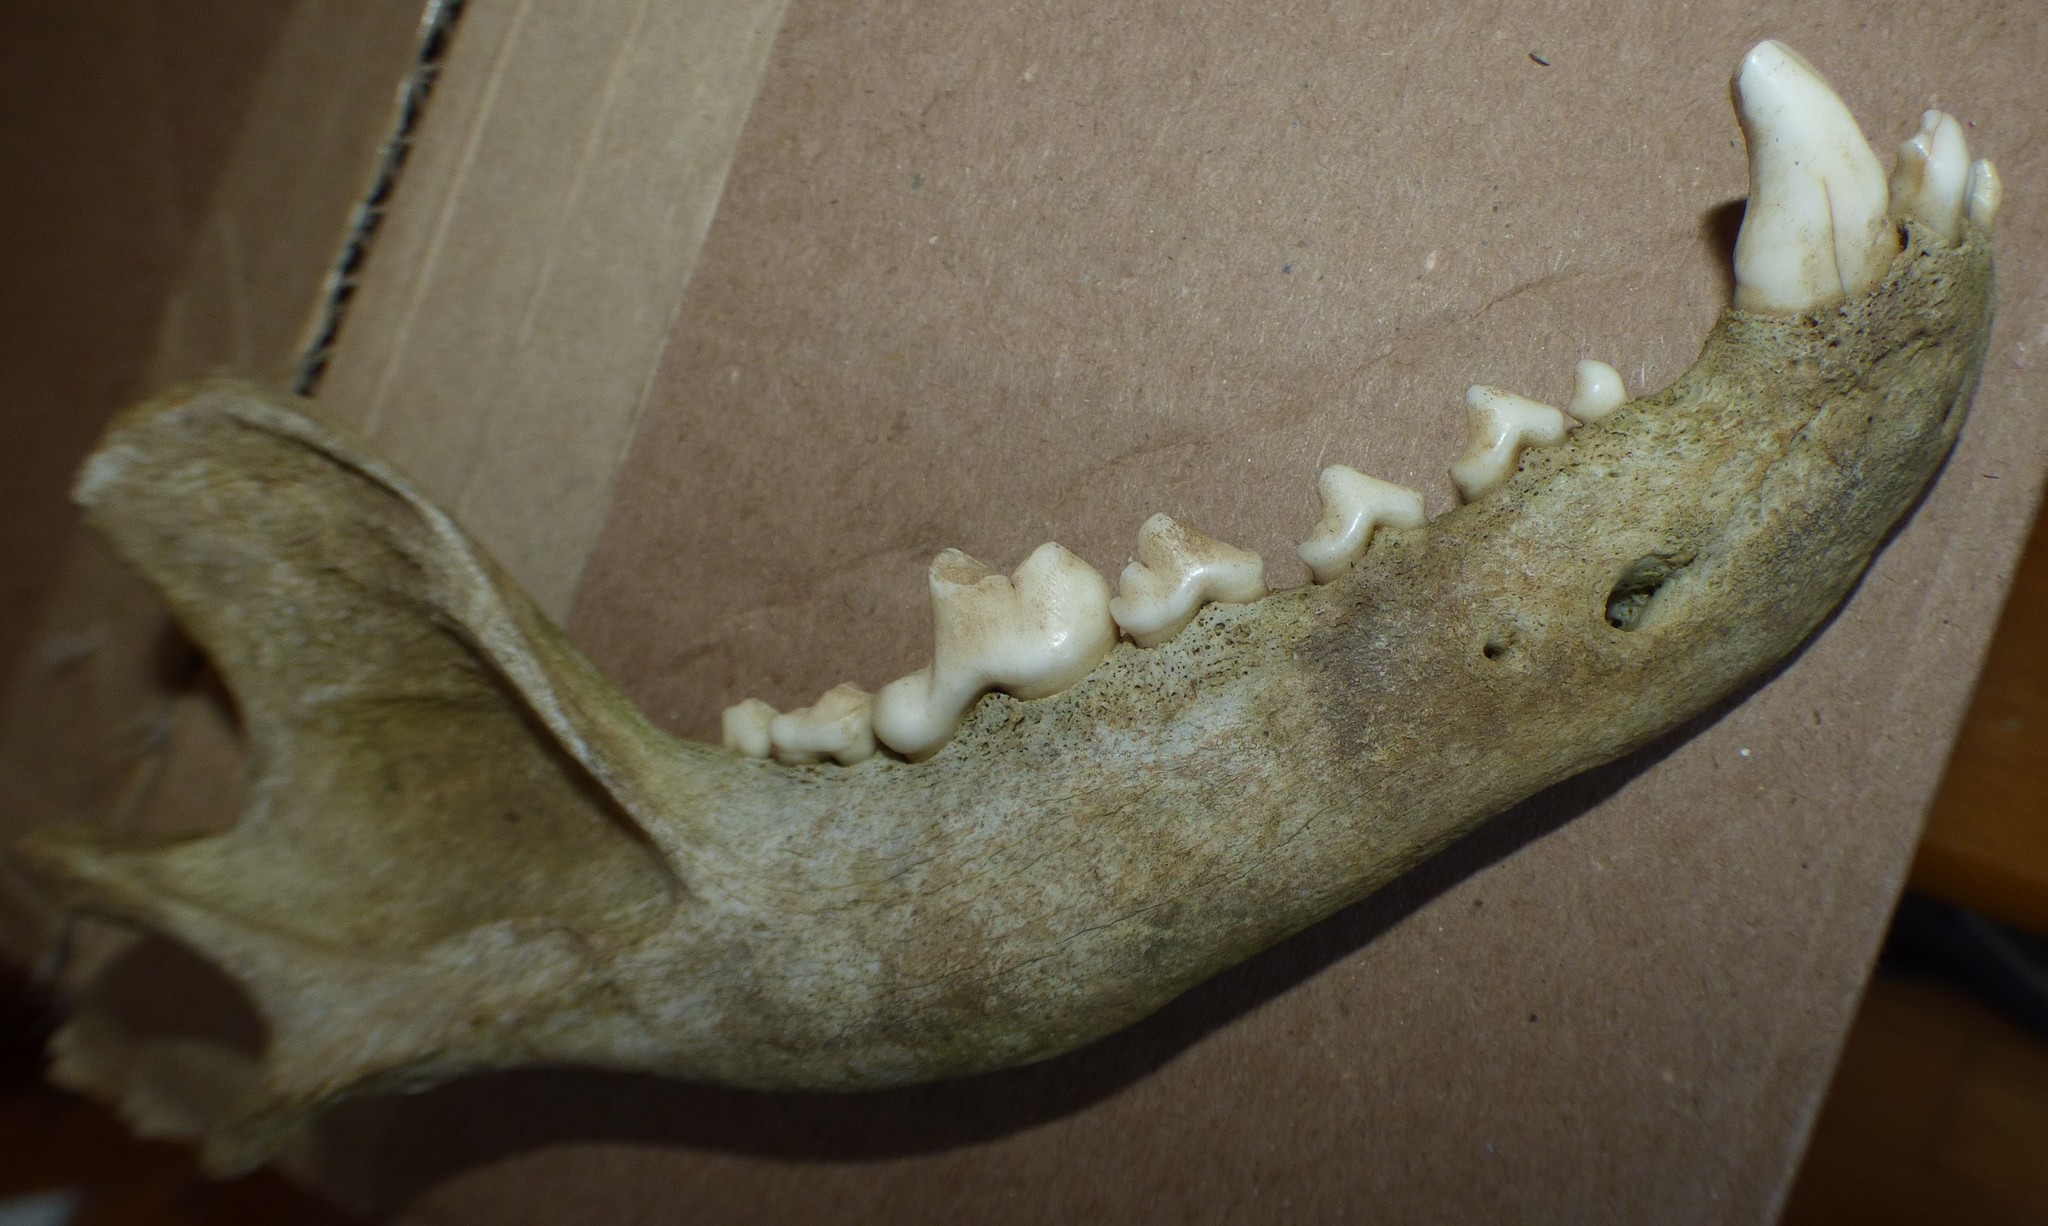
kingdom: Animalia
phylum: Chordata
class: Mammalia
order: Carnivora
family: Canidae
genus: Canis
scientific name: Canis lupus
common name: Gray wolf
